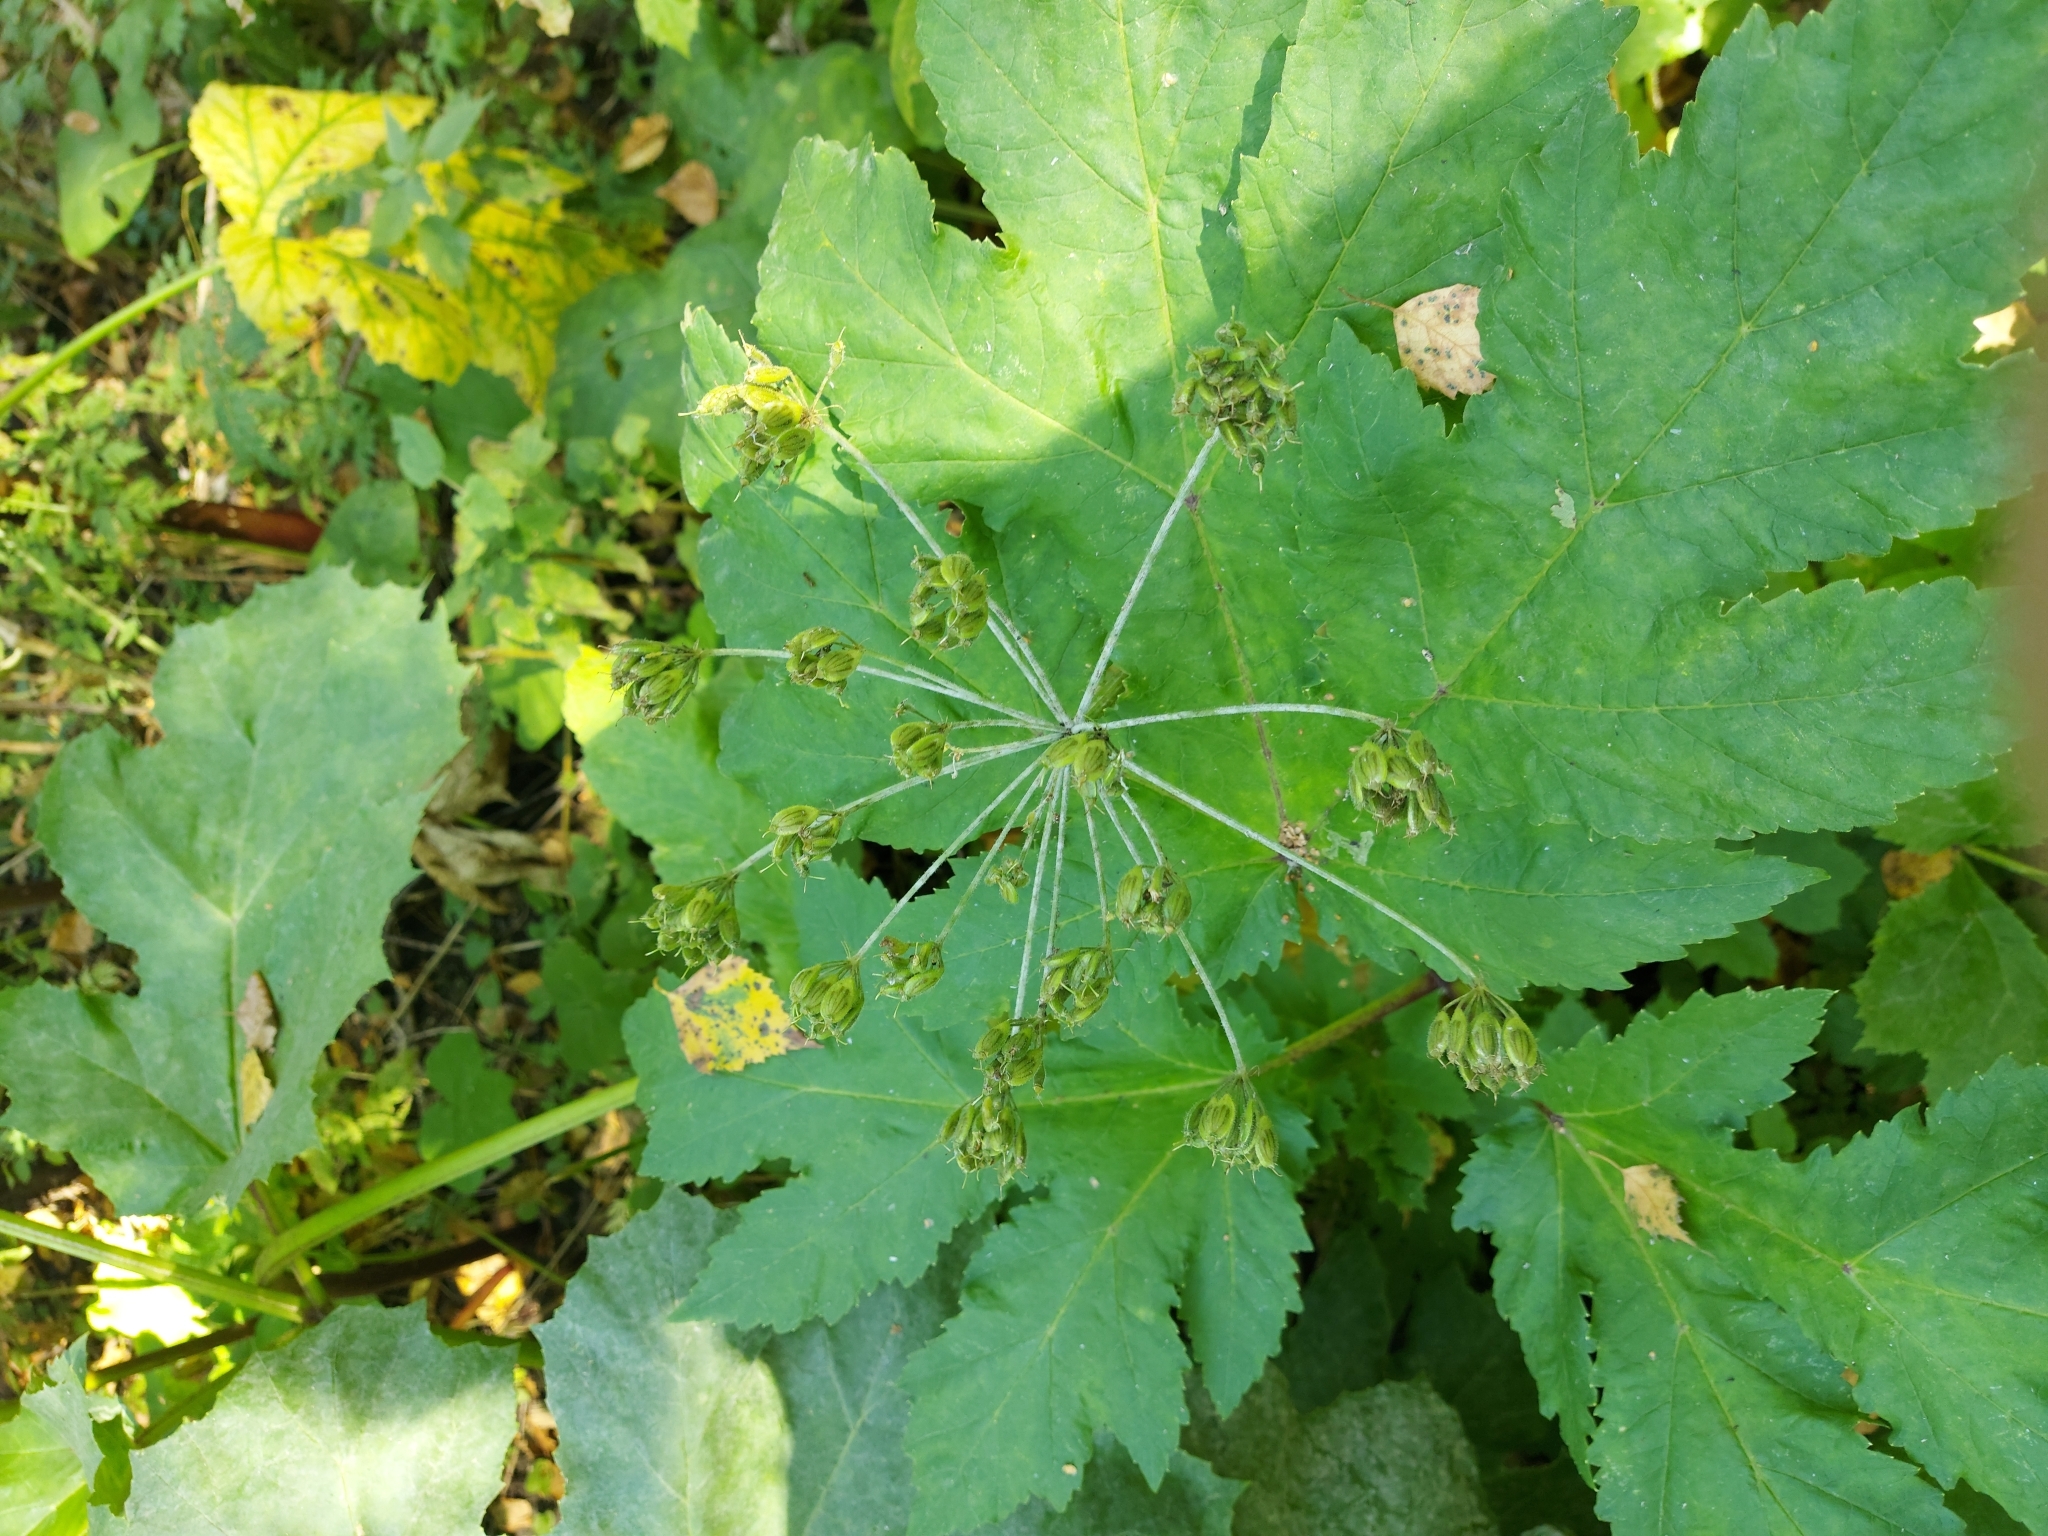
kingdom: Plantae
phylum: Tracheophyta
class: Magnoliopsida
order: Apiales
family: Apiaceae
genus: Heracleum
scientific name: Heracleum dissectum
